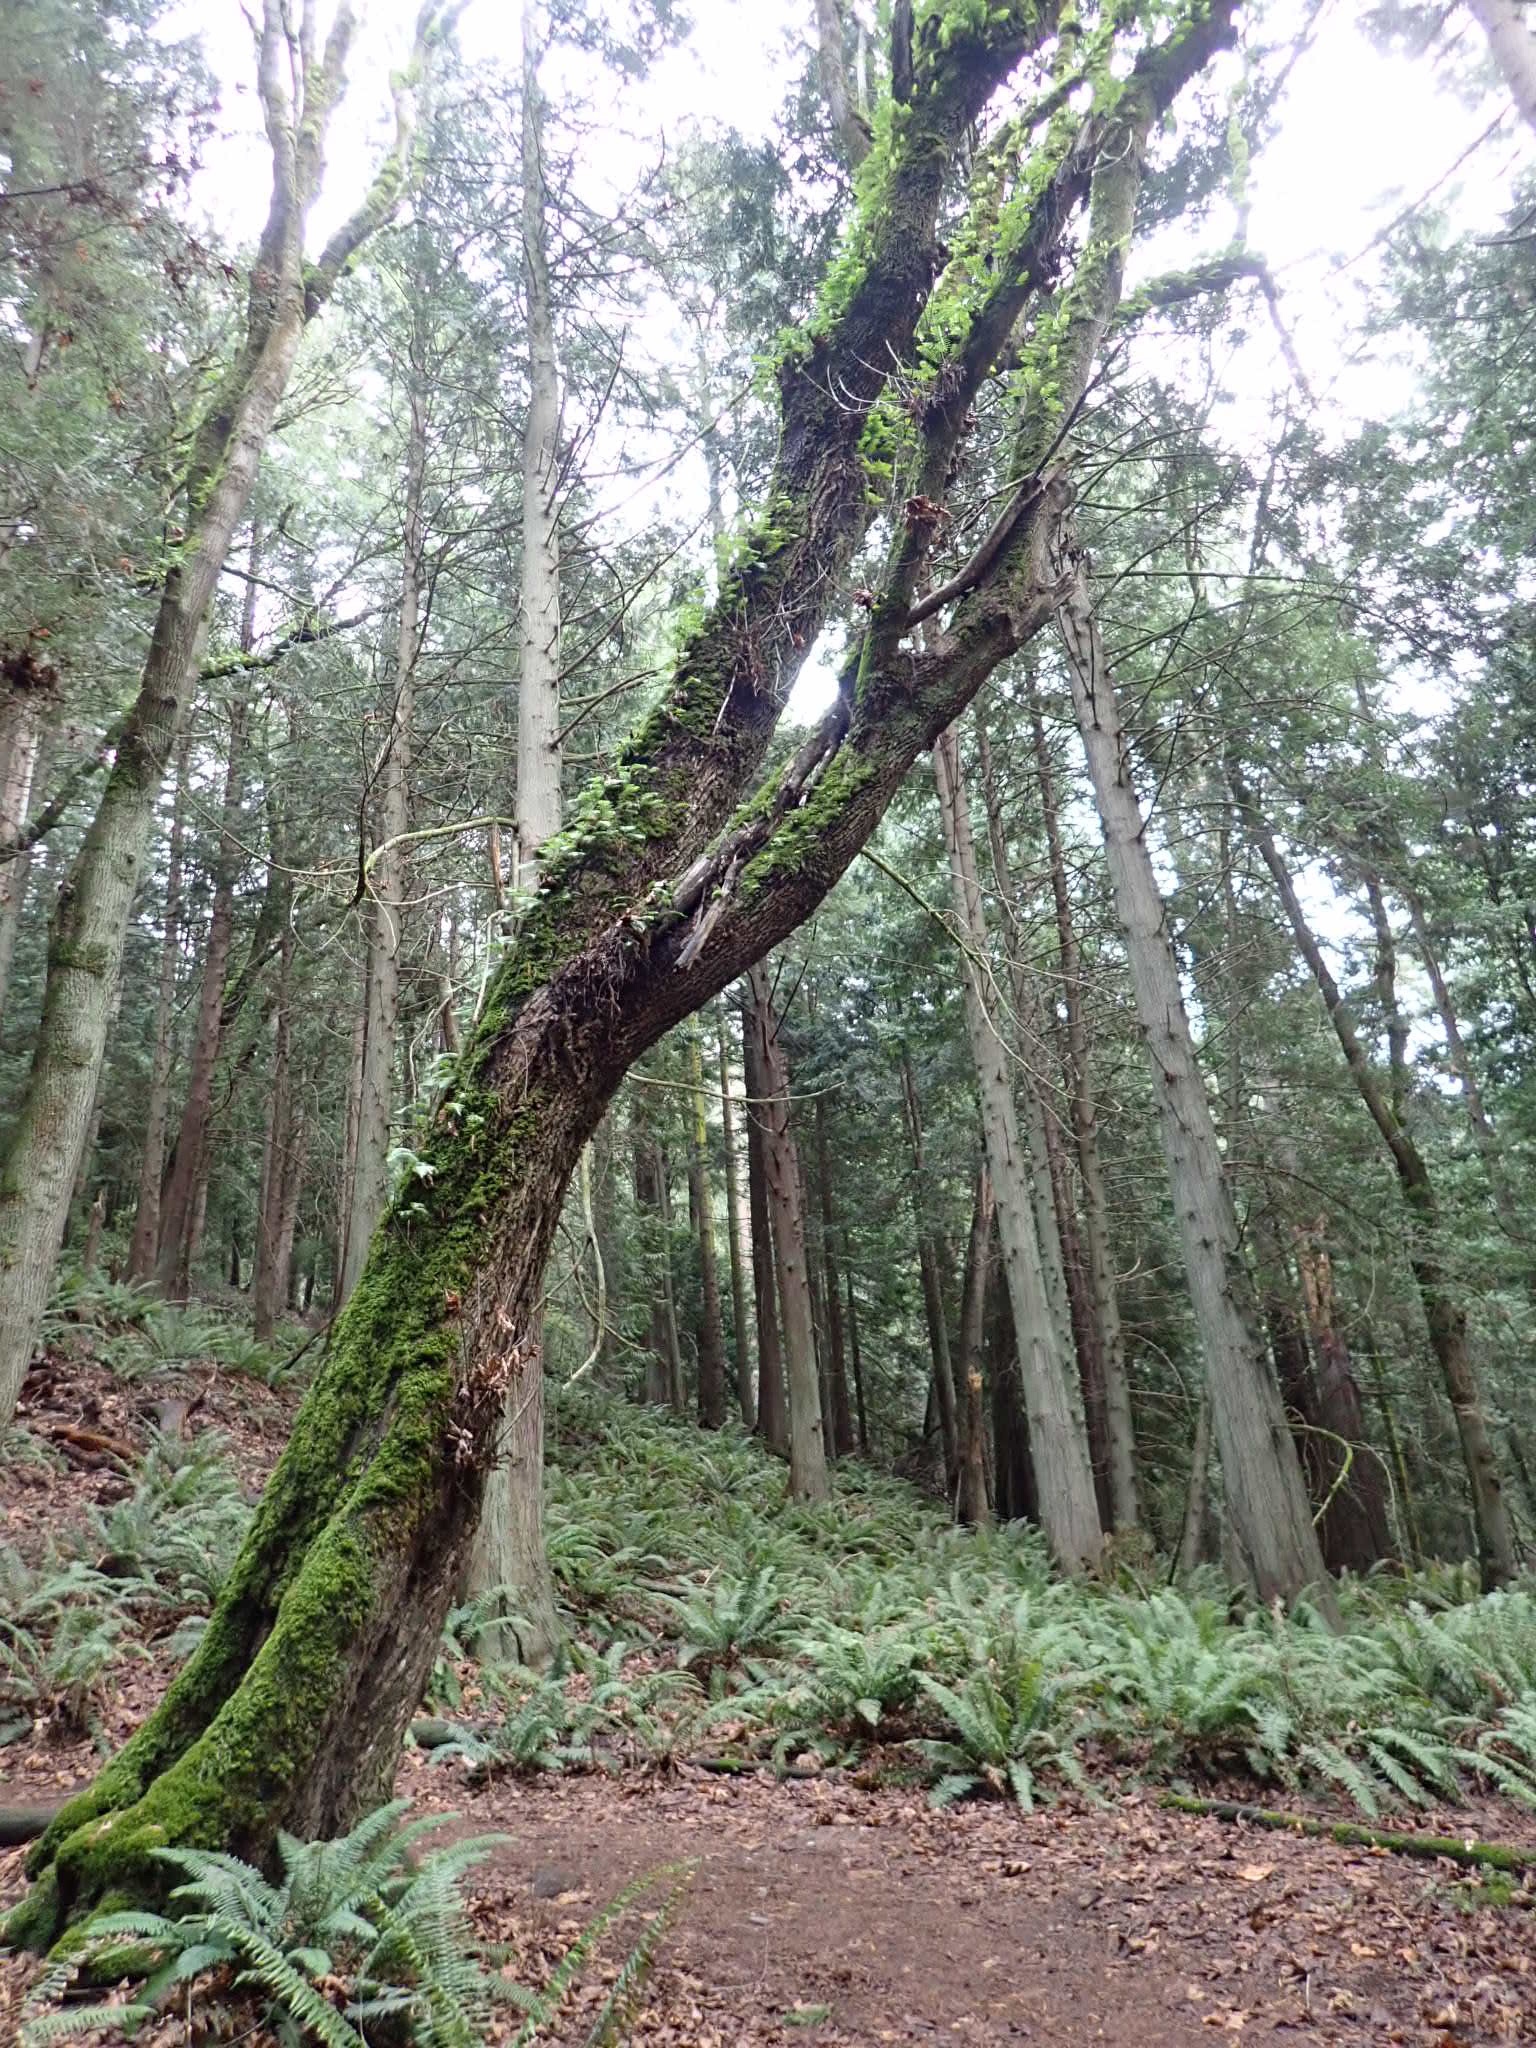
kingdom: Plantae
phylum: Tracheophyta
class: Polypodiopsida
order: Polypodiales
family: Polypodiaceae
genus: Polypodium
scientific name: Polypodium glycyrrhiza
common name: Licorice fern
